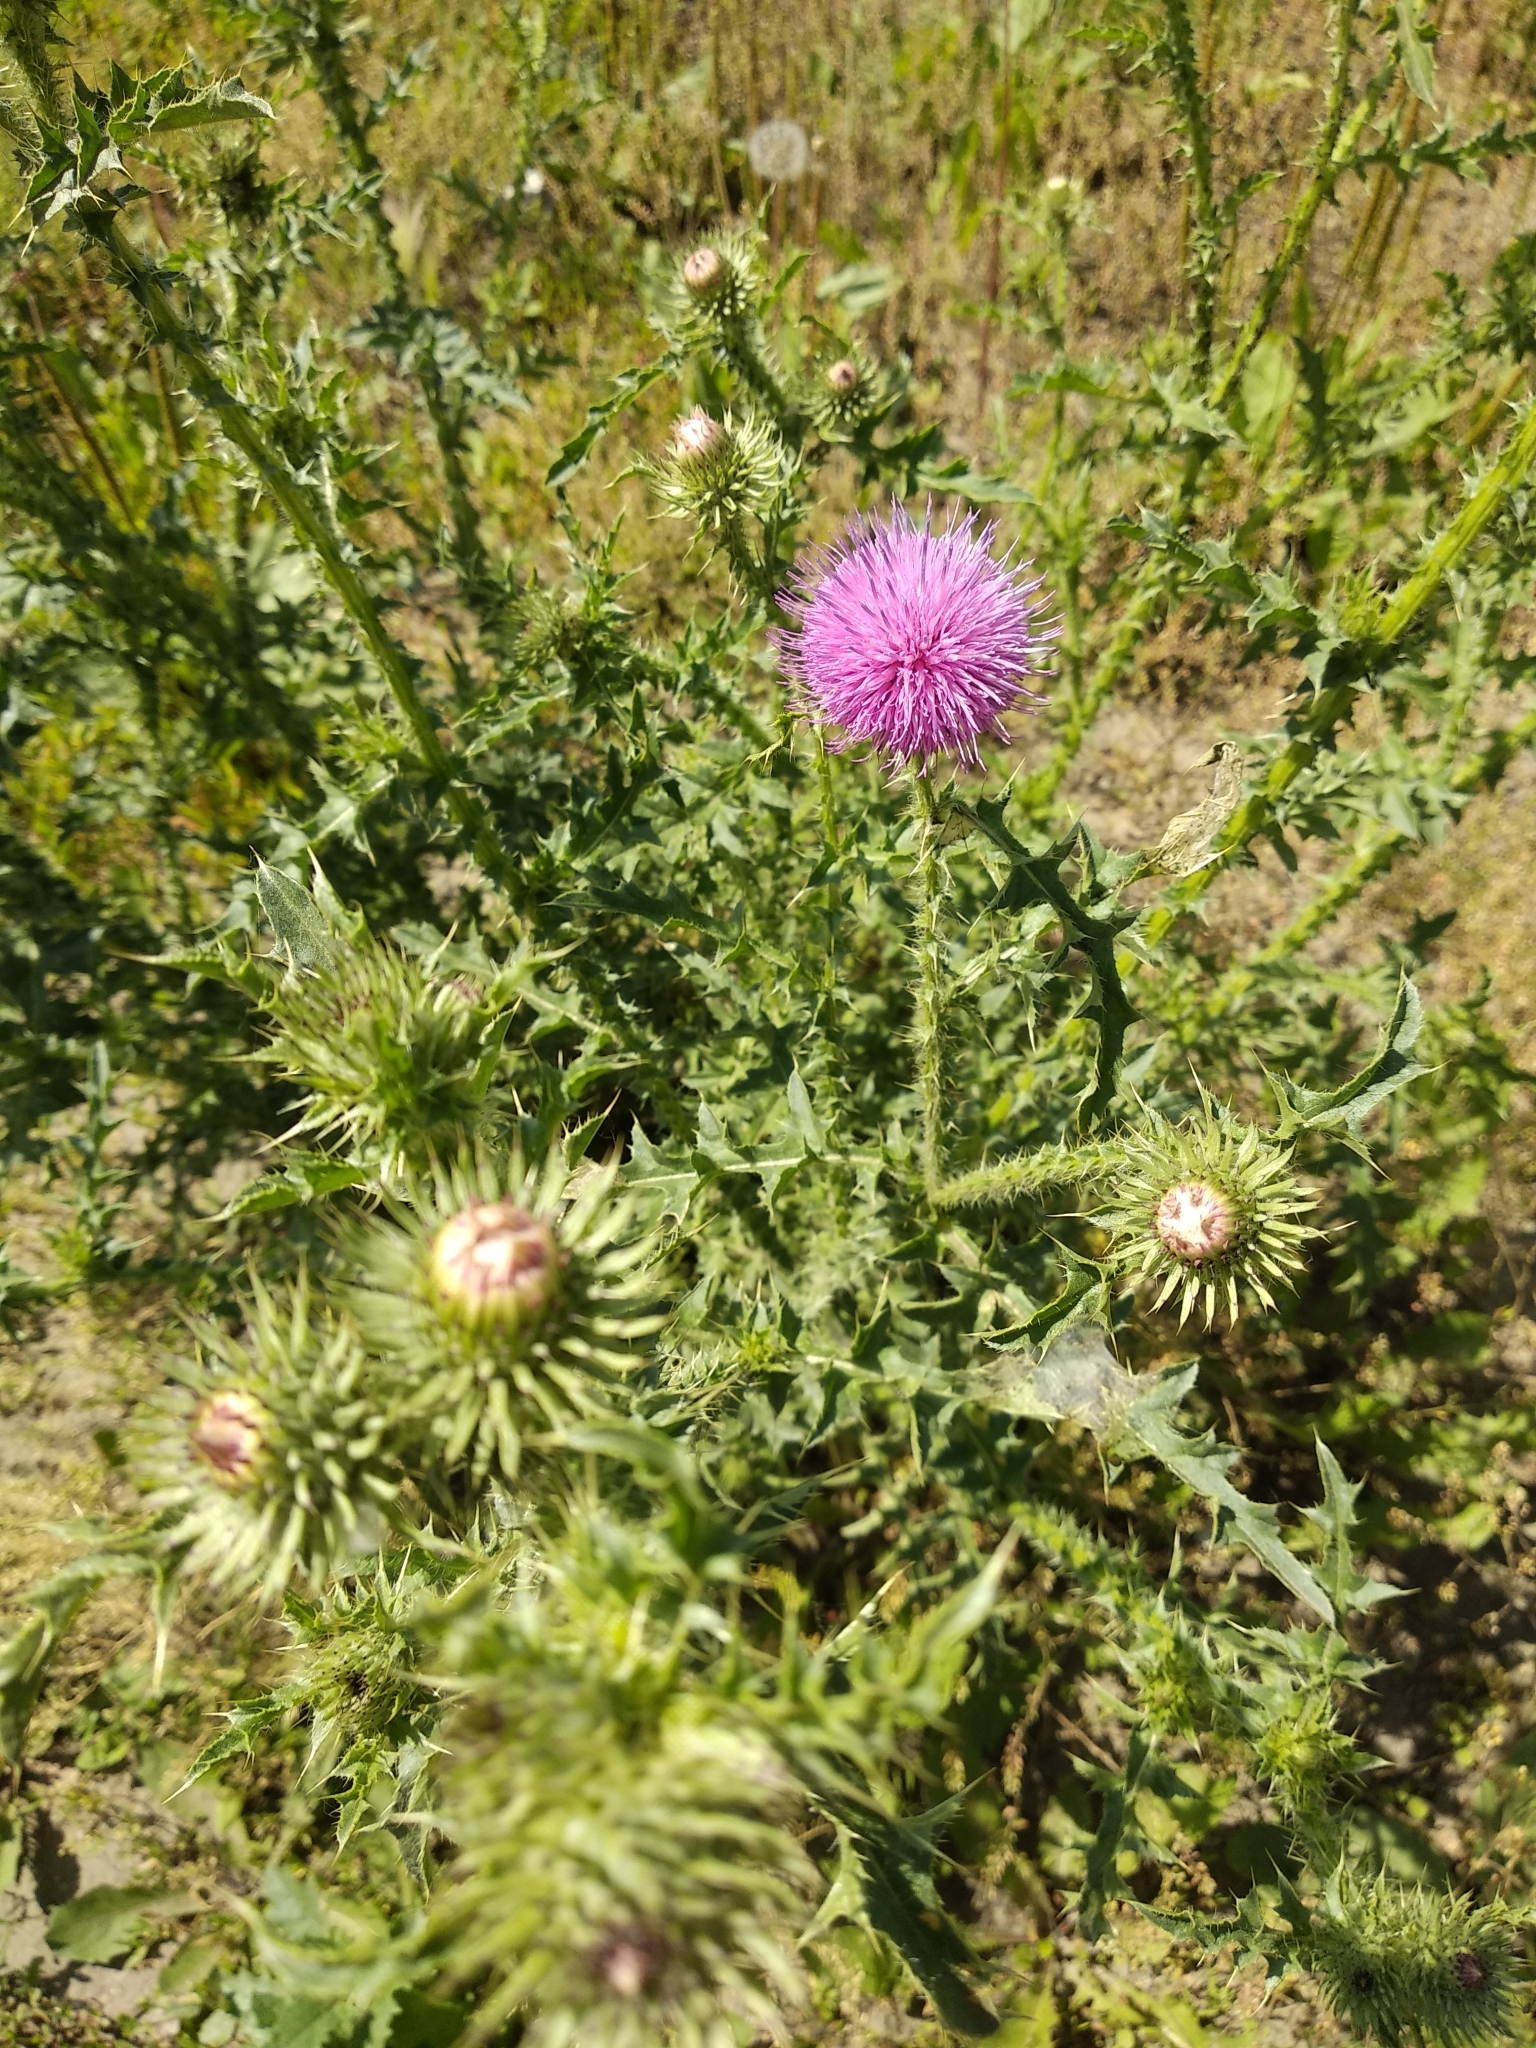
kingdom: Plantae
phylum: Tracheophyta
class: Magnoliopsida
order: Asterales
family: Asteraceae
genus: Carduus
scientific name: Carduus acanthoides
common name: Plumeless thistle
